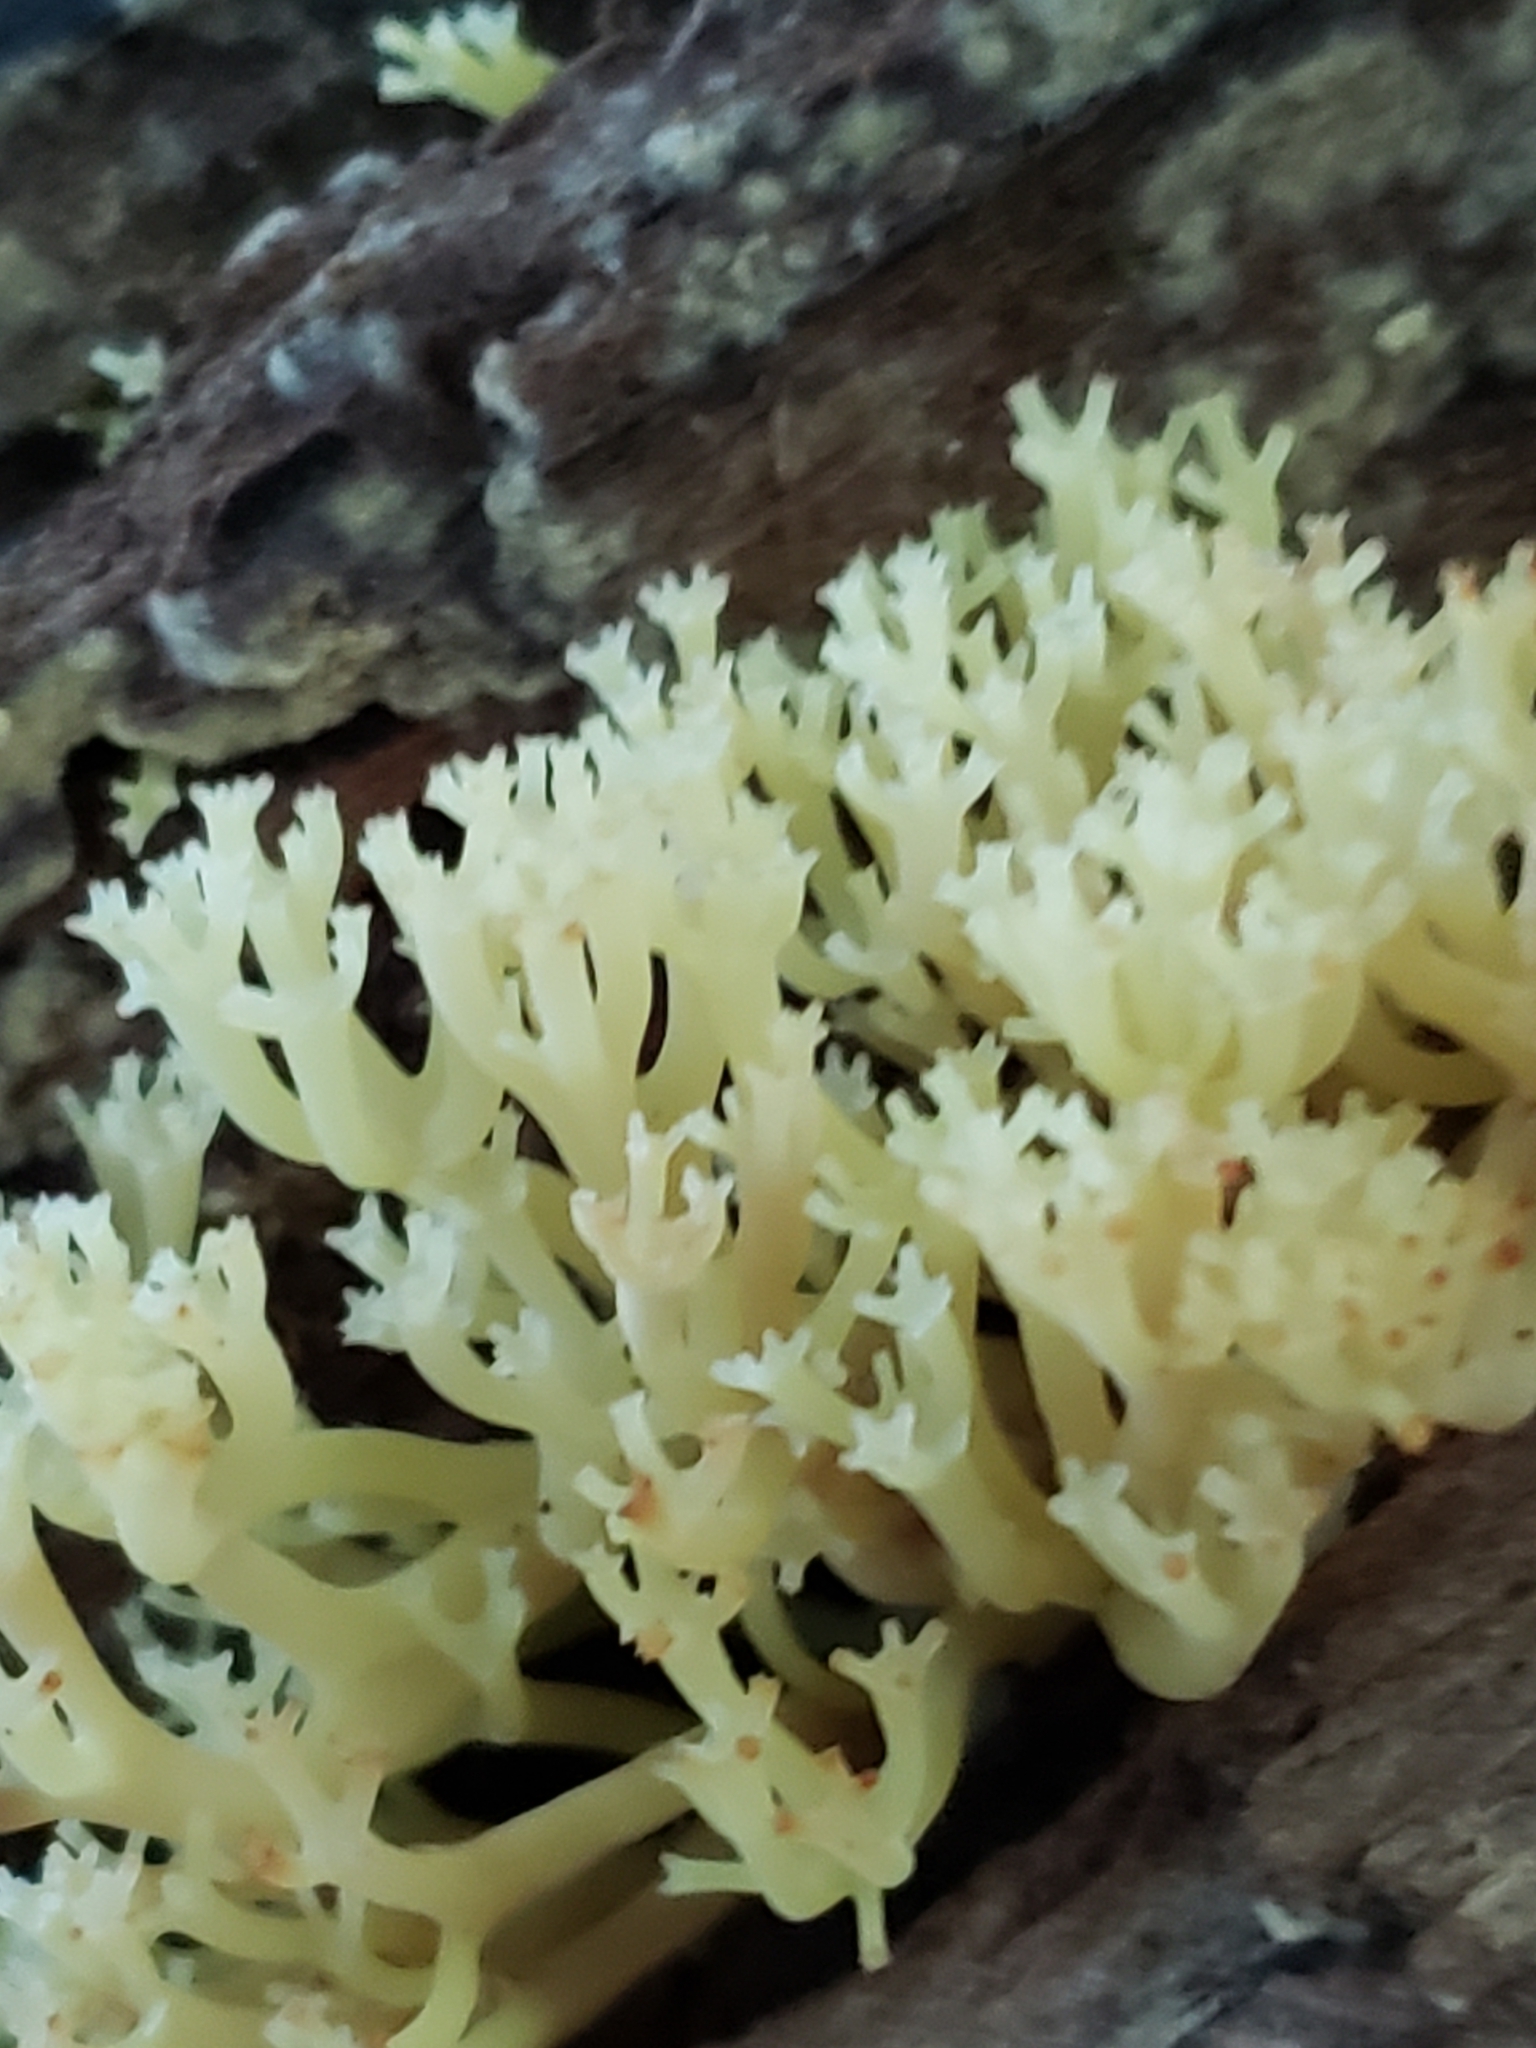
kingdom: Fungi
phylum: Basidiomycota
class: Agaricomycetes
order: Russulales
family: Auriscalpiaceae
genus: Artomyces
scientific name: Artomyces pyxidatus
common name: Crown-tipped coral fungus
